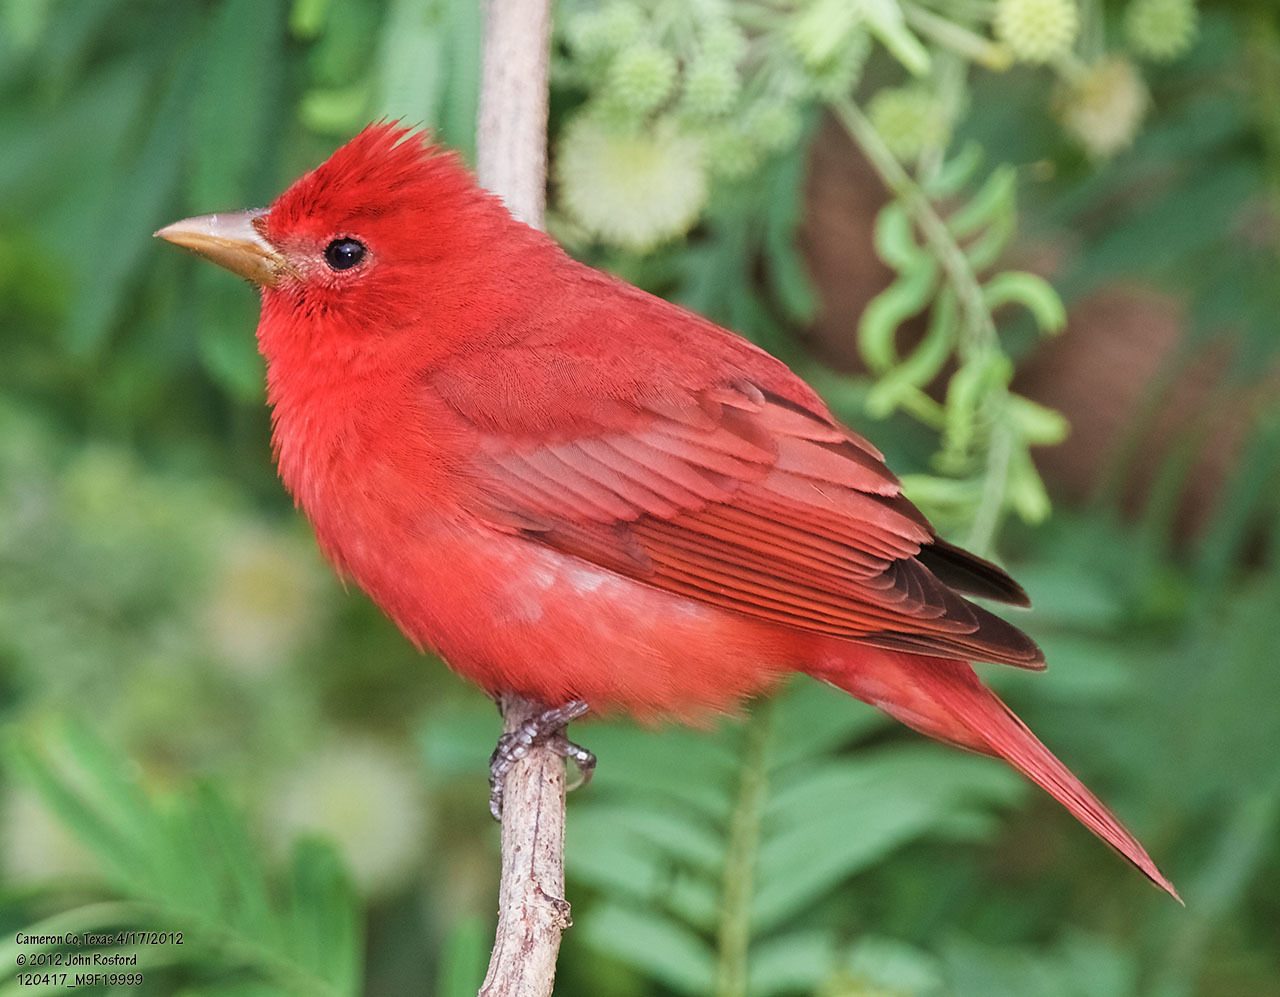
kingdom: Animalia
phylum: Chordata
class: Aves
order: Passeriformes
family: Cardinalidae
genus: Piranga
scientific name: Piranga rubra
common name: Summer tanager
